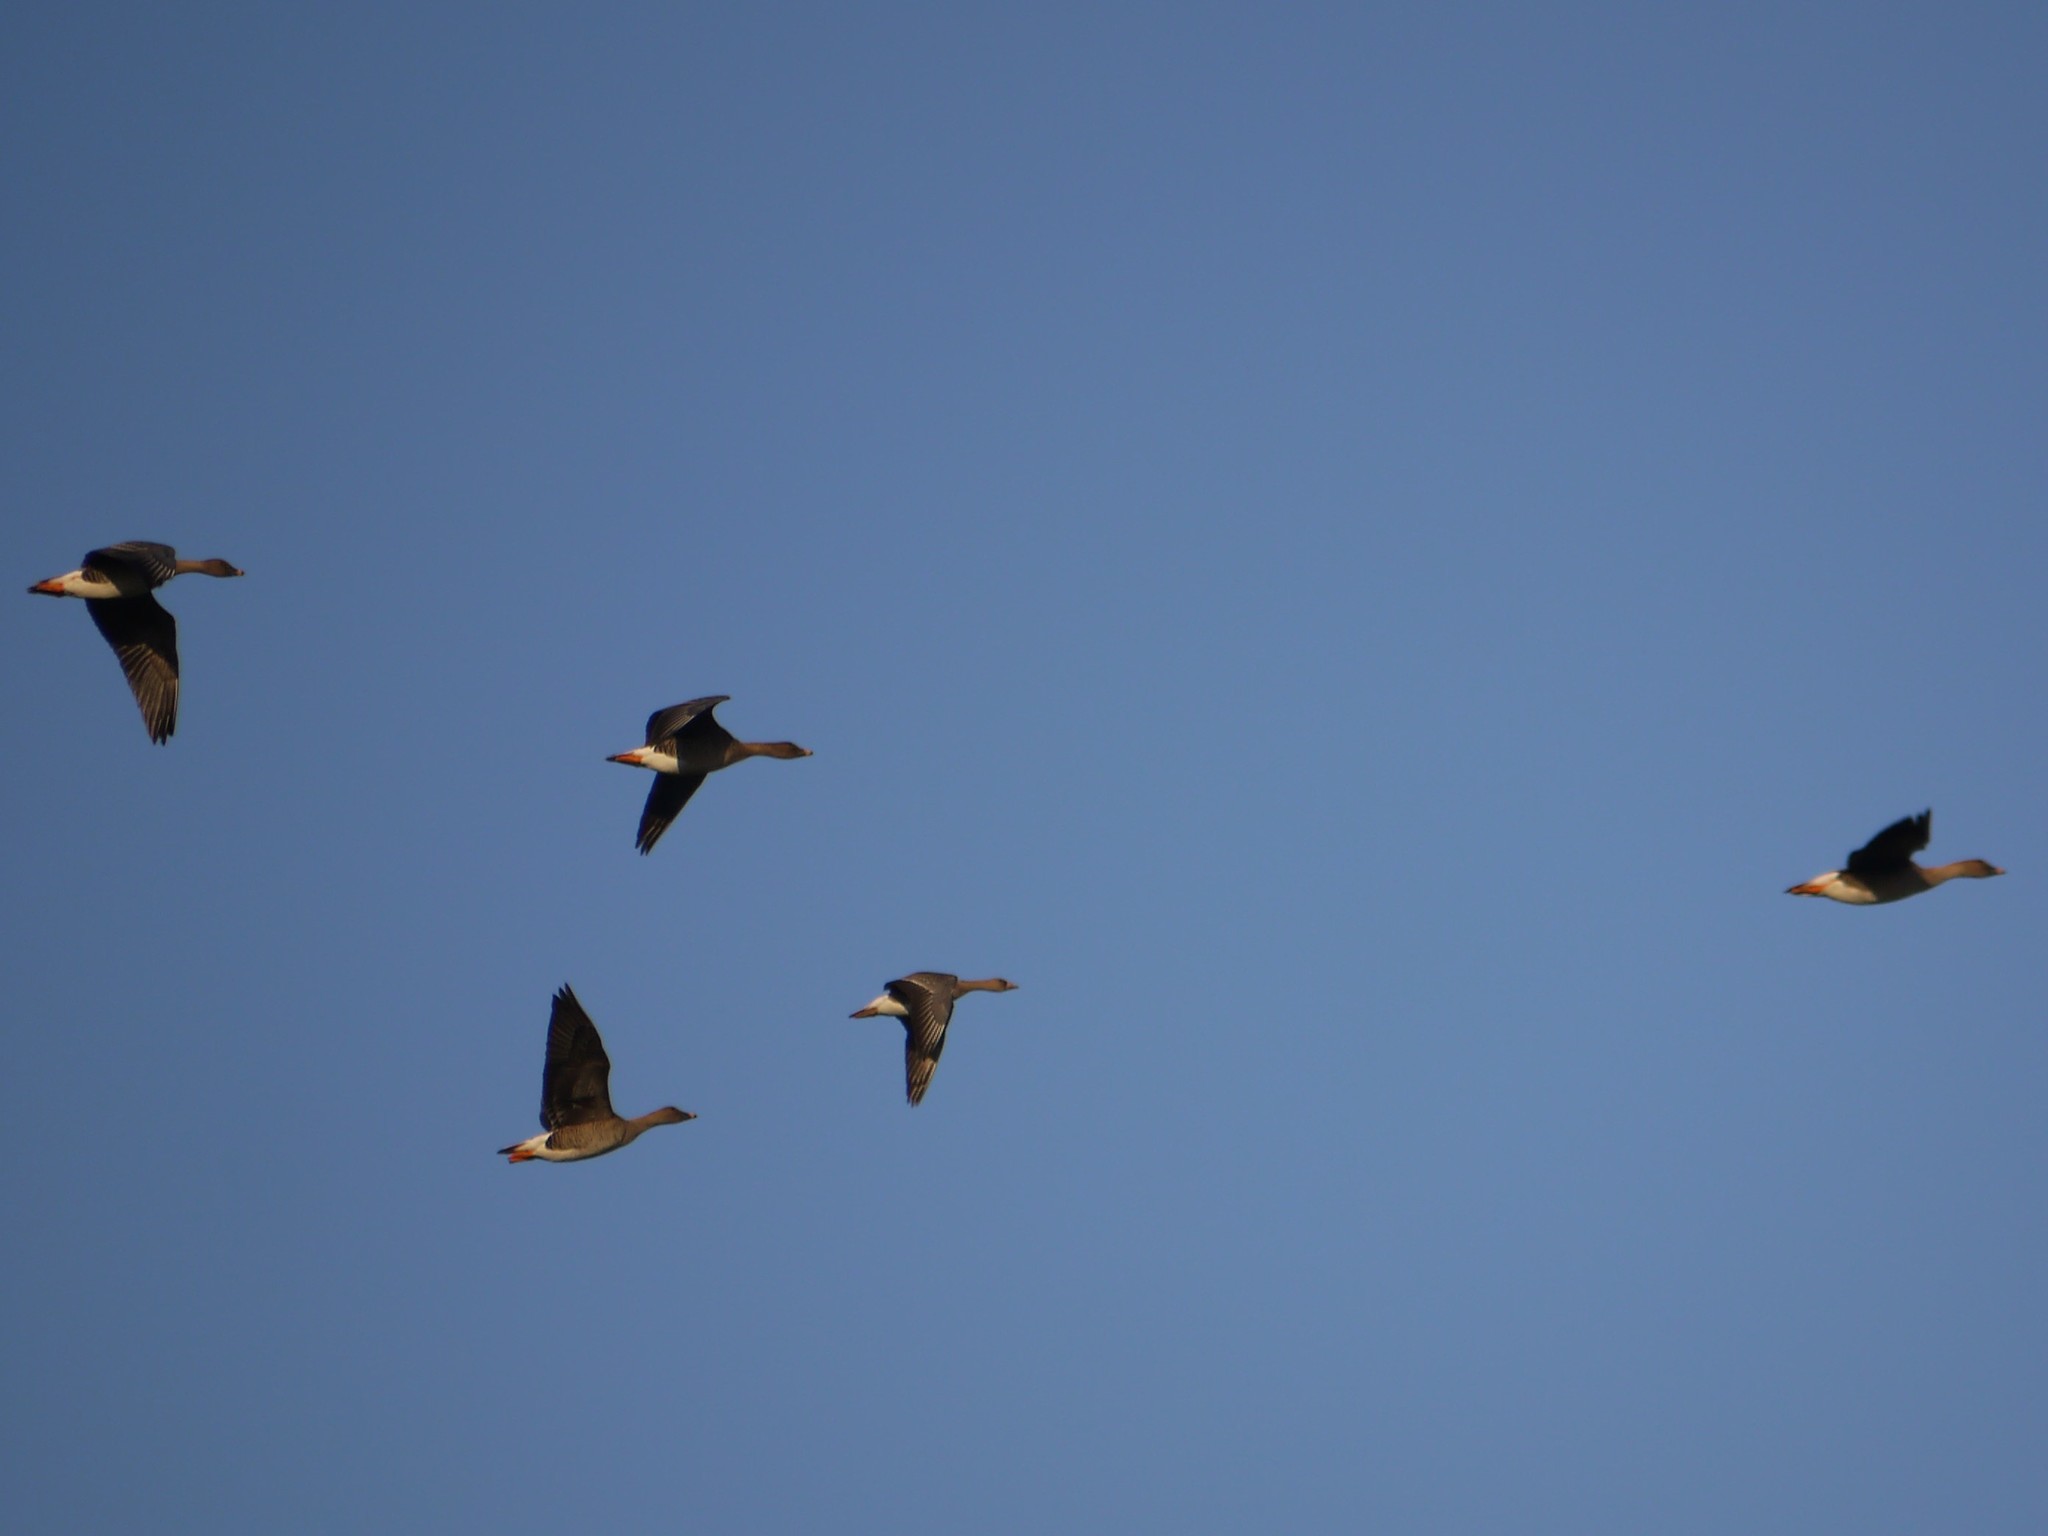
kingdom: Animalia
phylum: Chordata
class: Aves
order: Anseriformes
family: Anatidae
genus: Anser
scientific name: Anser serrirostris
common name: Tundra bean goose
